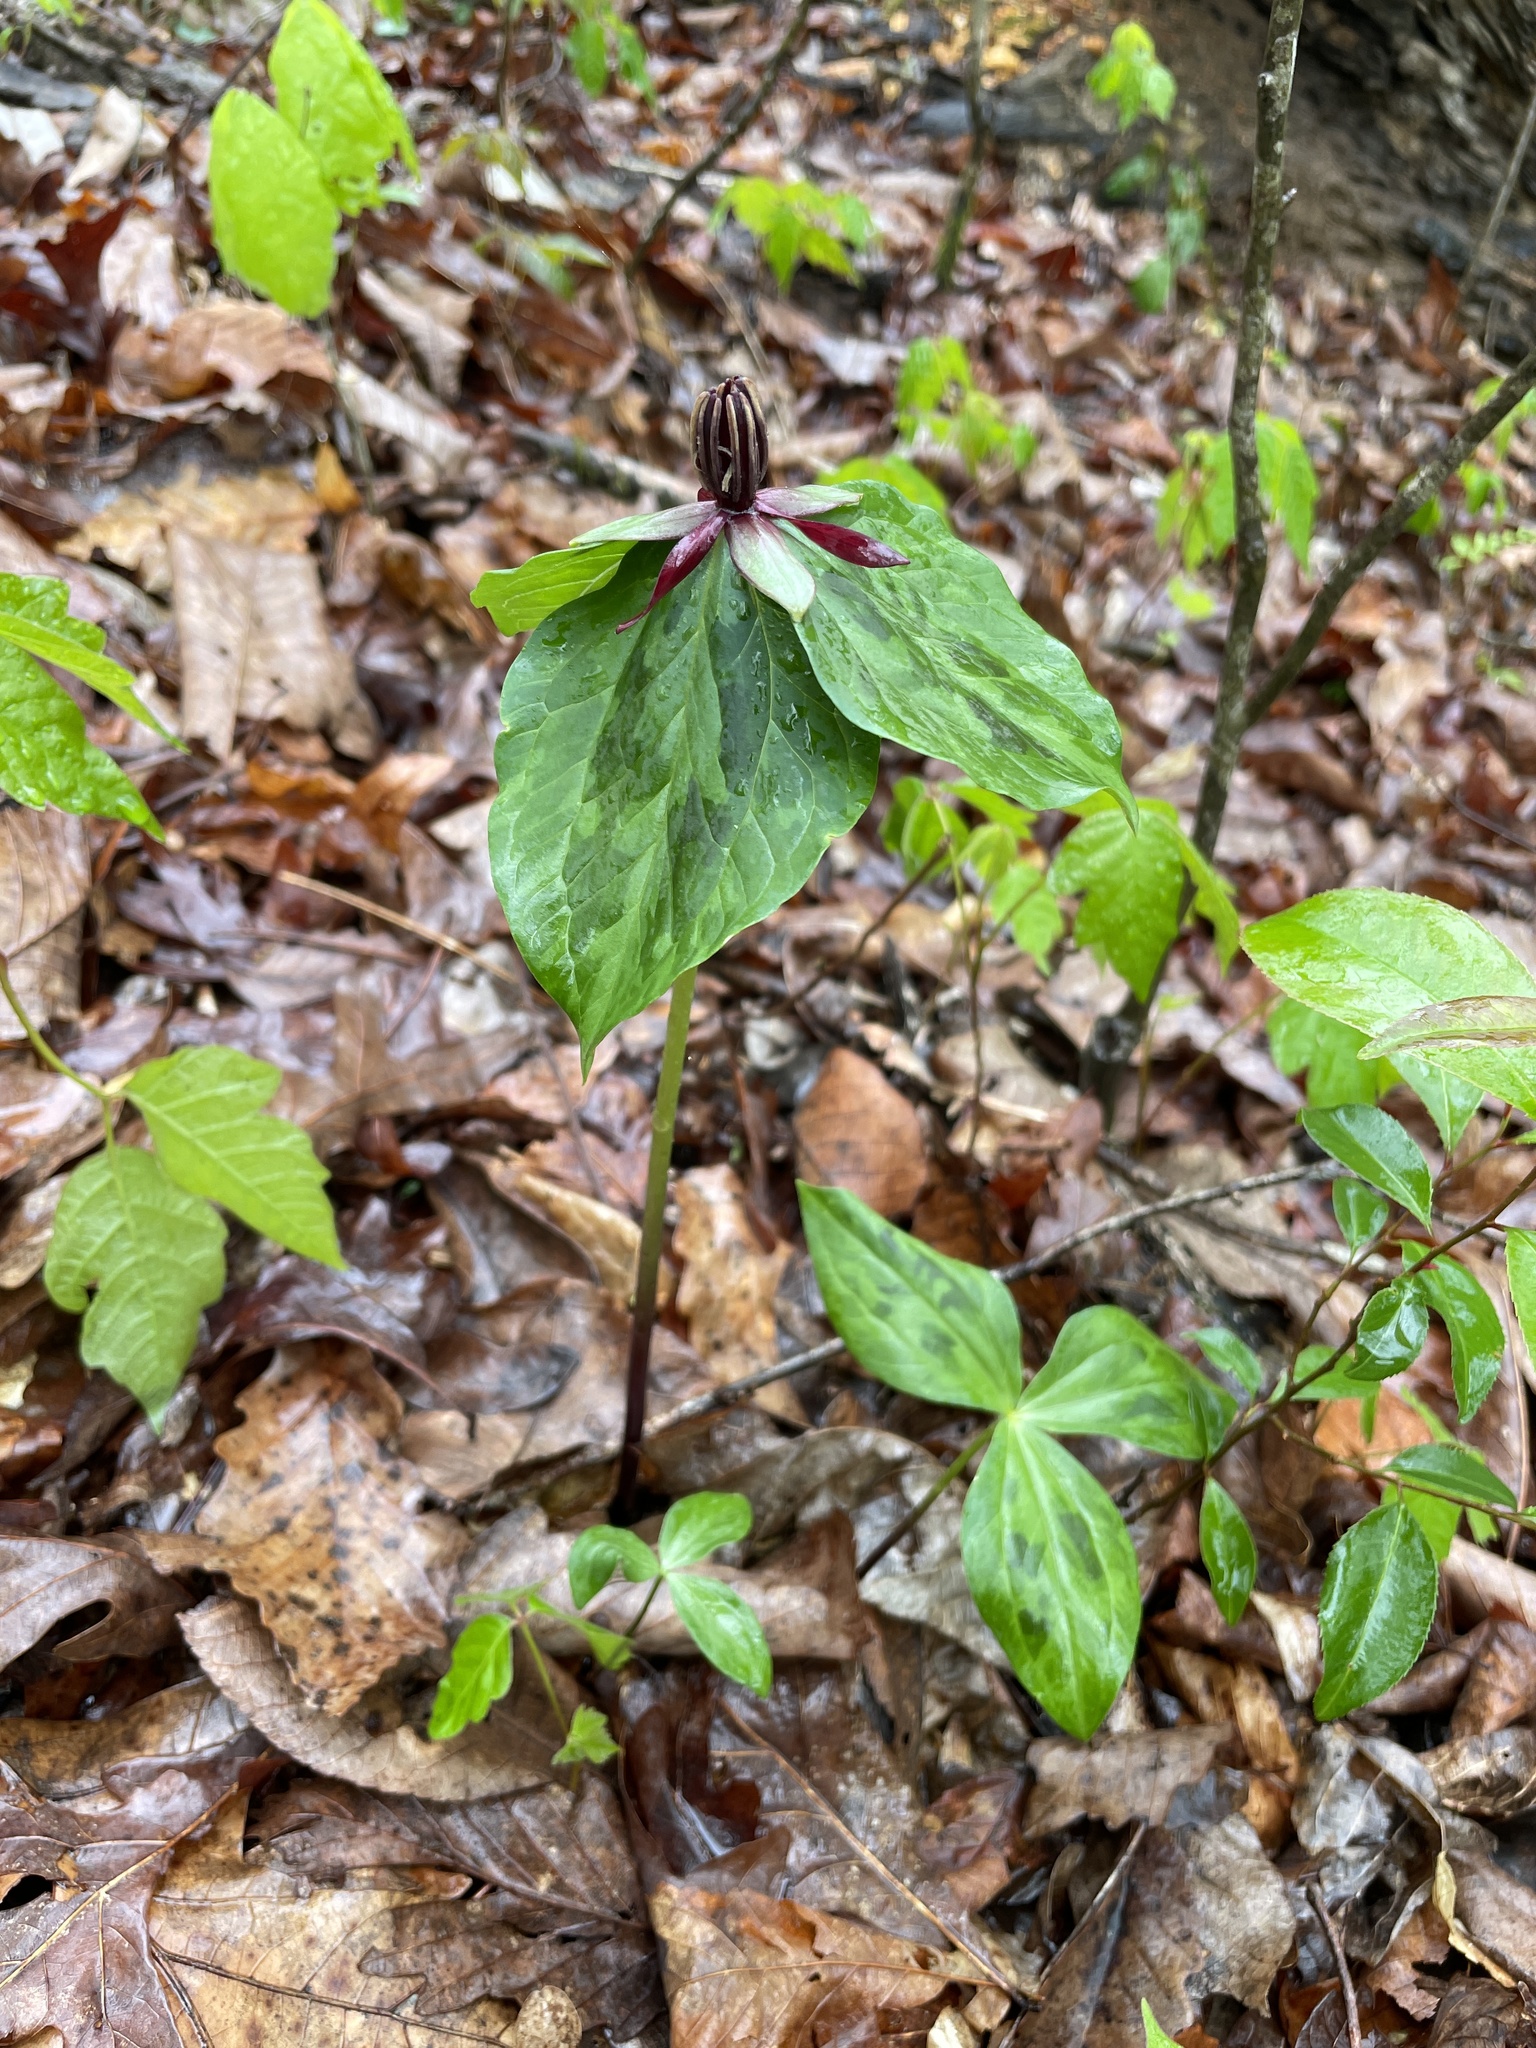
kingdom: Plantae
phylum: Tracheophyta
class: Liliopsida
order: Liliales
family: Melanthiaceae
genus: Trillium
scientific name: Trillium stamineum
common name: Blue ridge wakerobin
